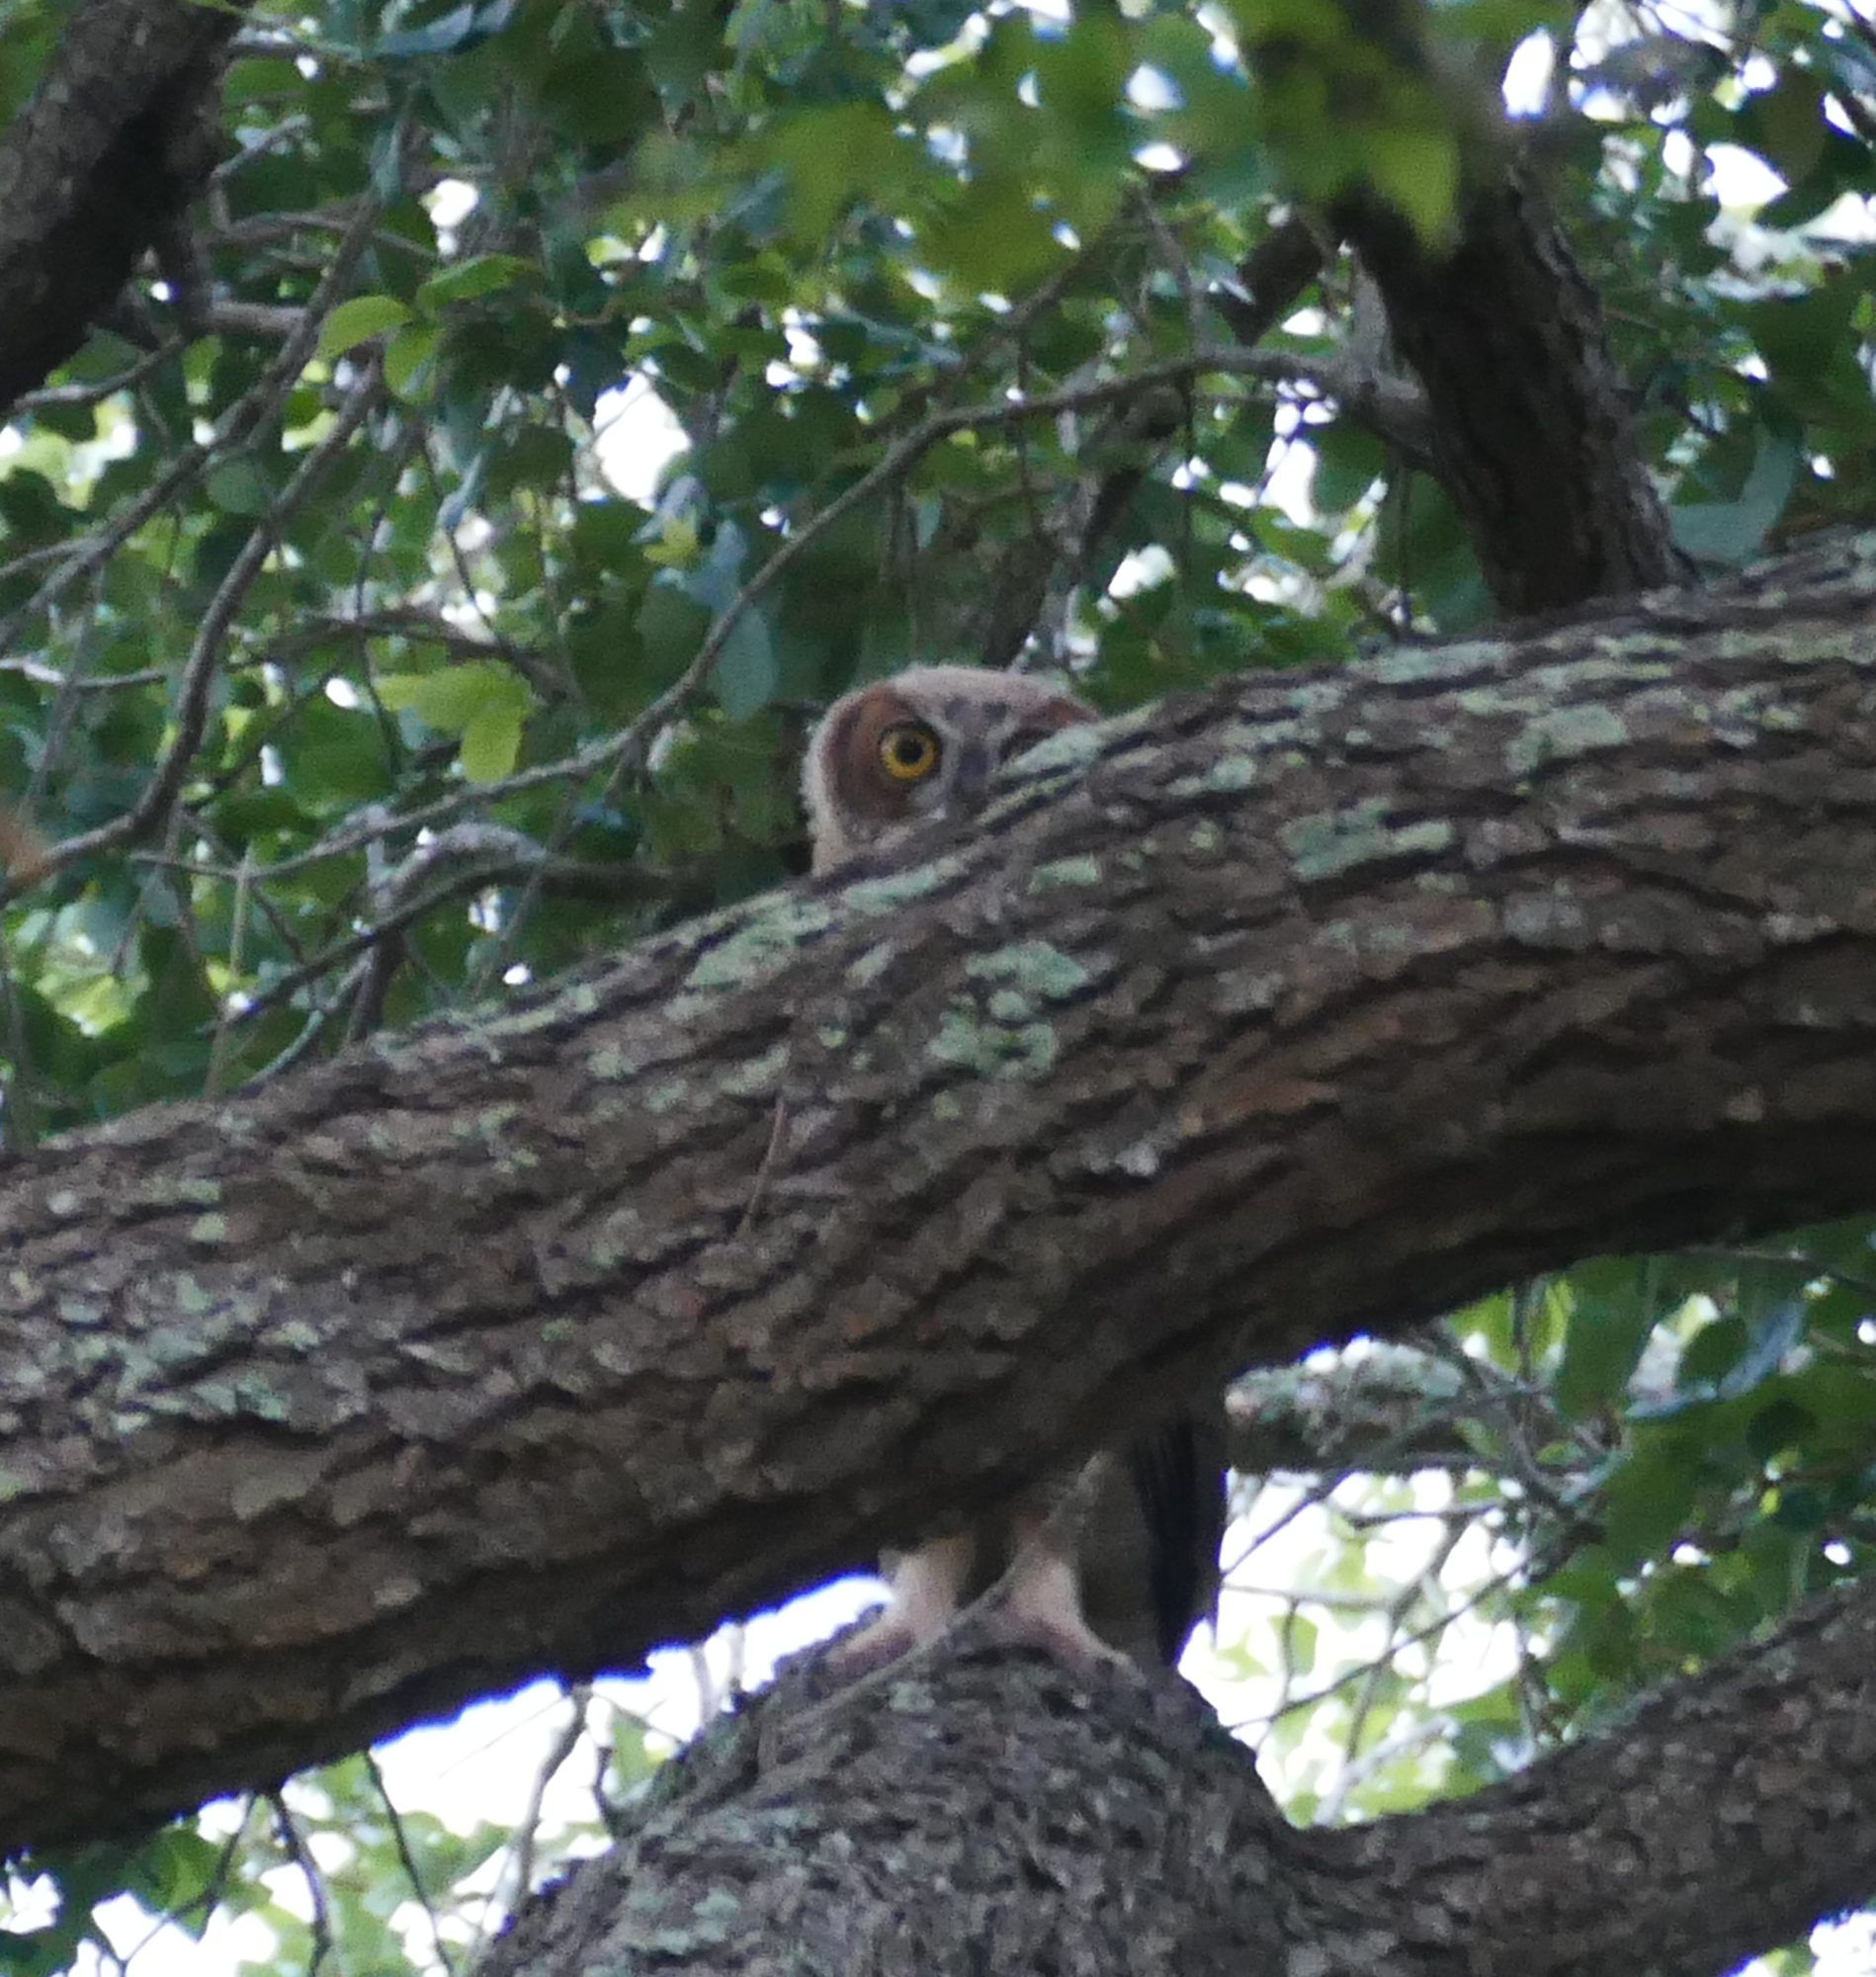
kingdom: Animalia
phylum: Chordata
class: Aves
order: Strigiformes
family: Strigidae
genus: Bubo
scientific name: Bubo virginianus
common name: Great horned owl
